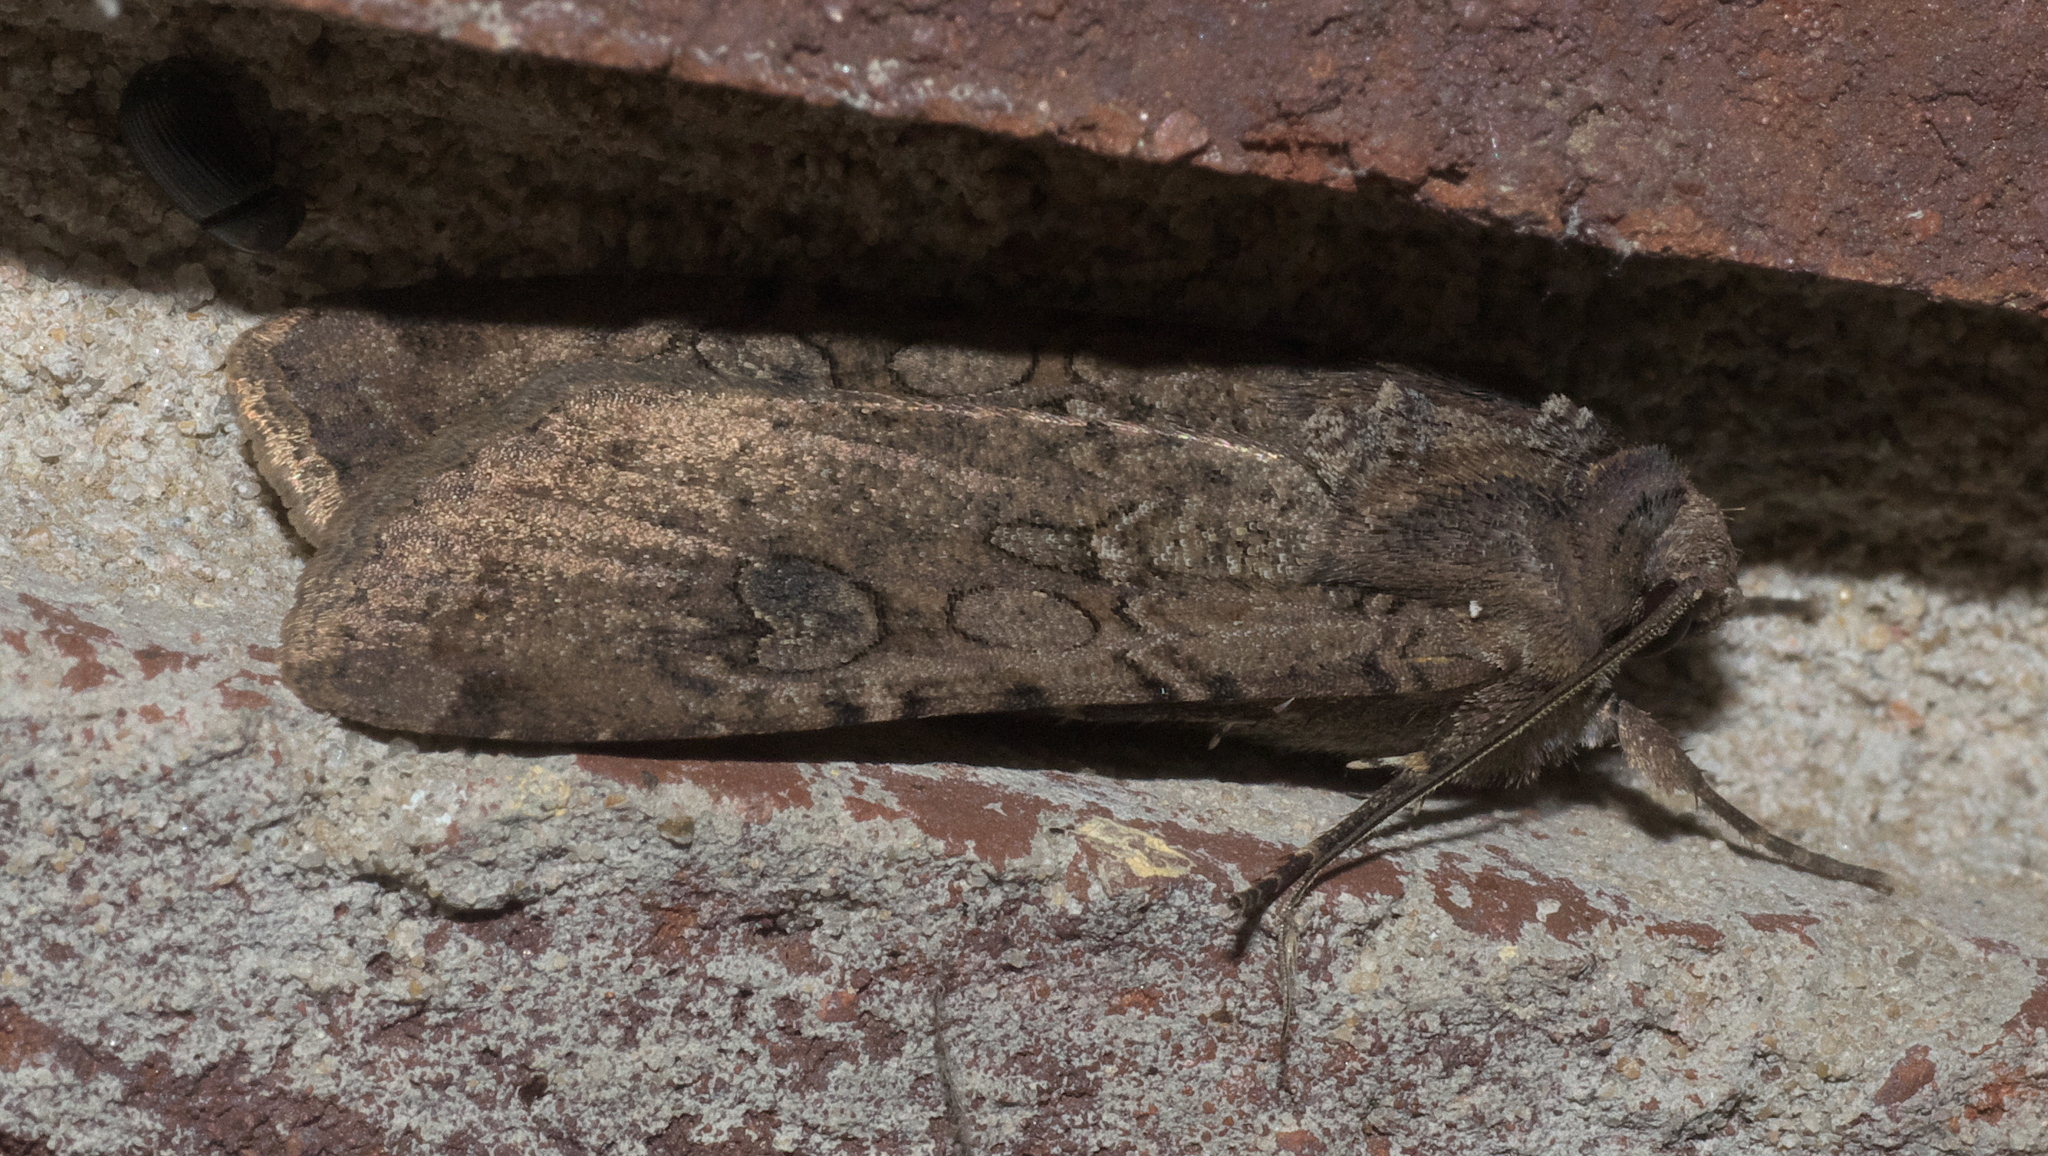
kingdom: Animalia
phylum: Arthropoda
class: Insecta
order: Lepidoptera
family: Noctuidae
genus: Peridroma
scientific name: Peridroma saucia
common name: Pearly underwing
